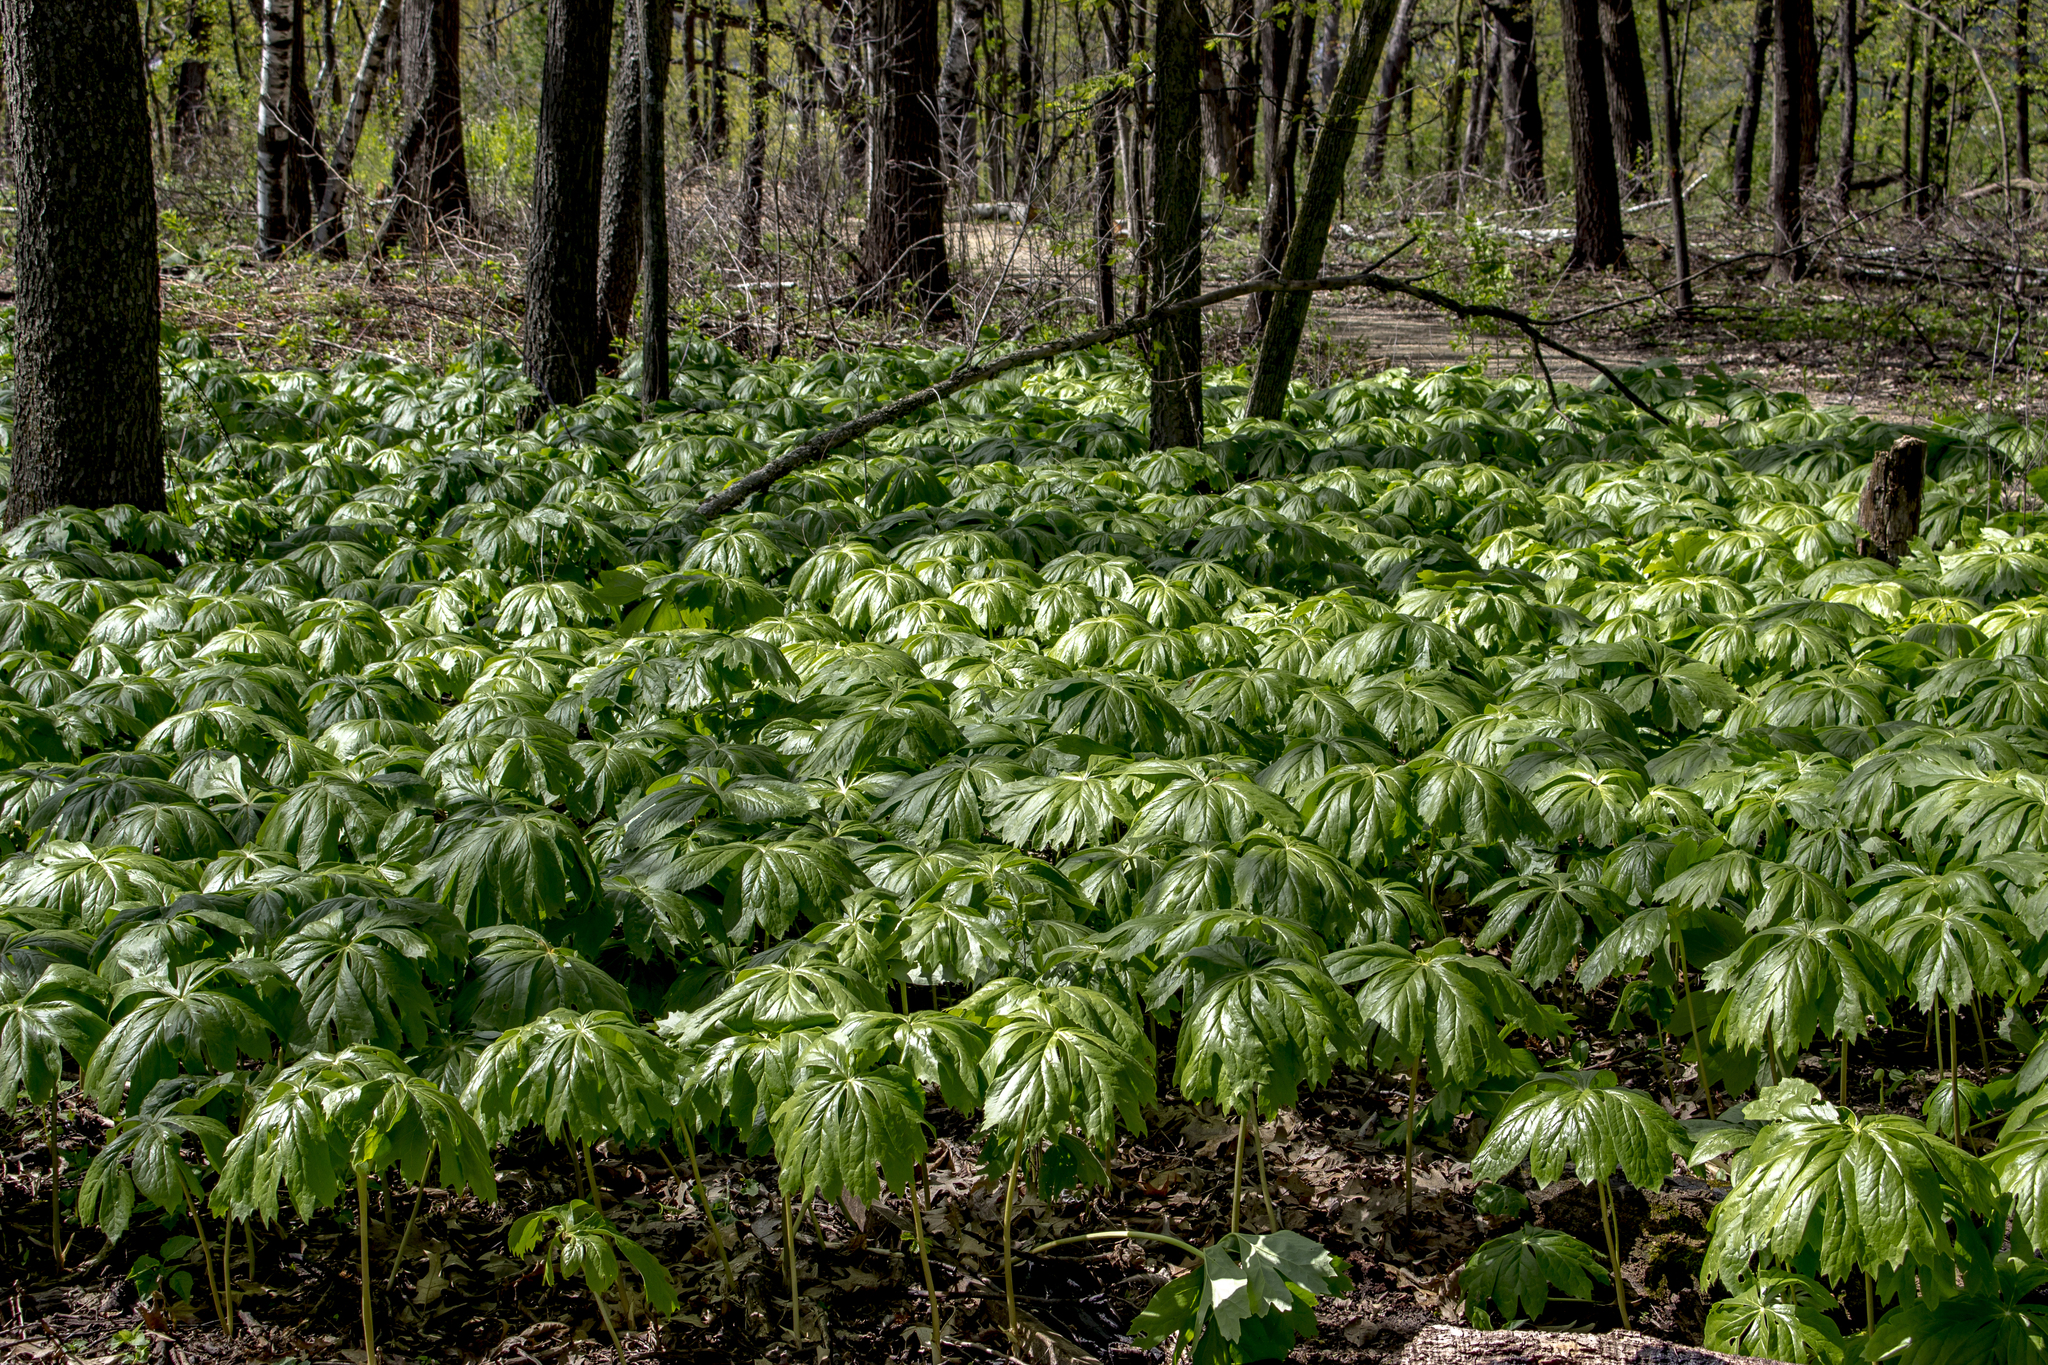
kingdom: Plantae
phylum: Tracheophyta
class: Magnoliopsida
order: Ranunculales
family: Berberidaceae
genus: Podophyllum
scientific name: Podophyllum peltatum
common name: Wild mandrake
